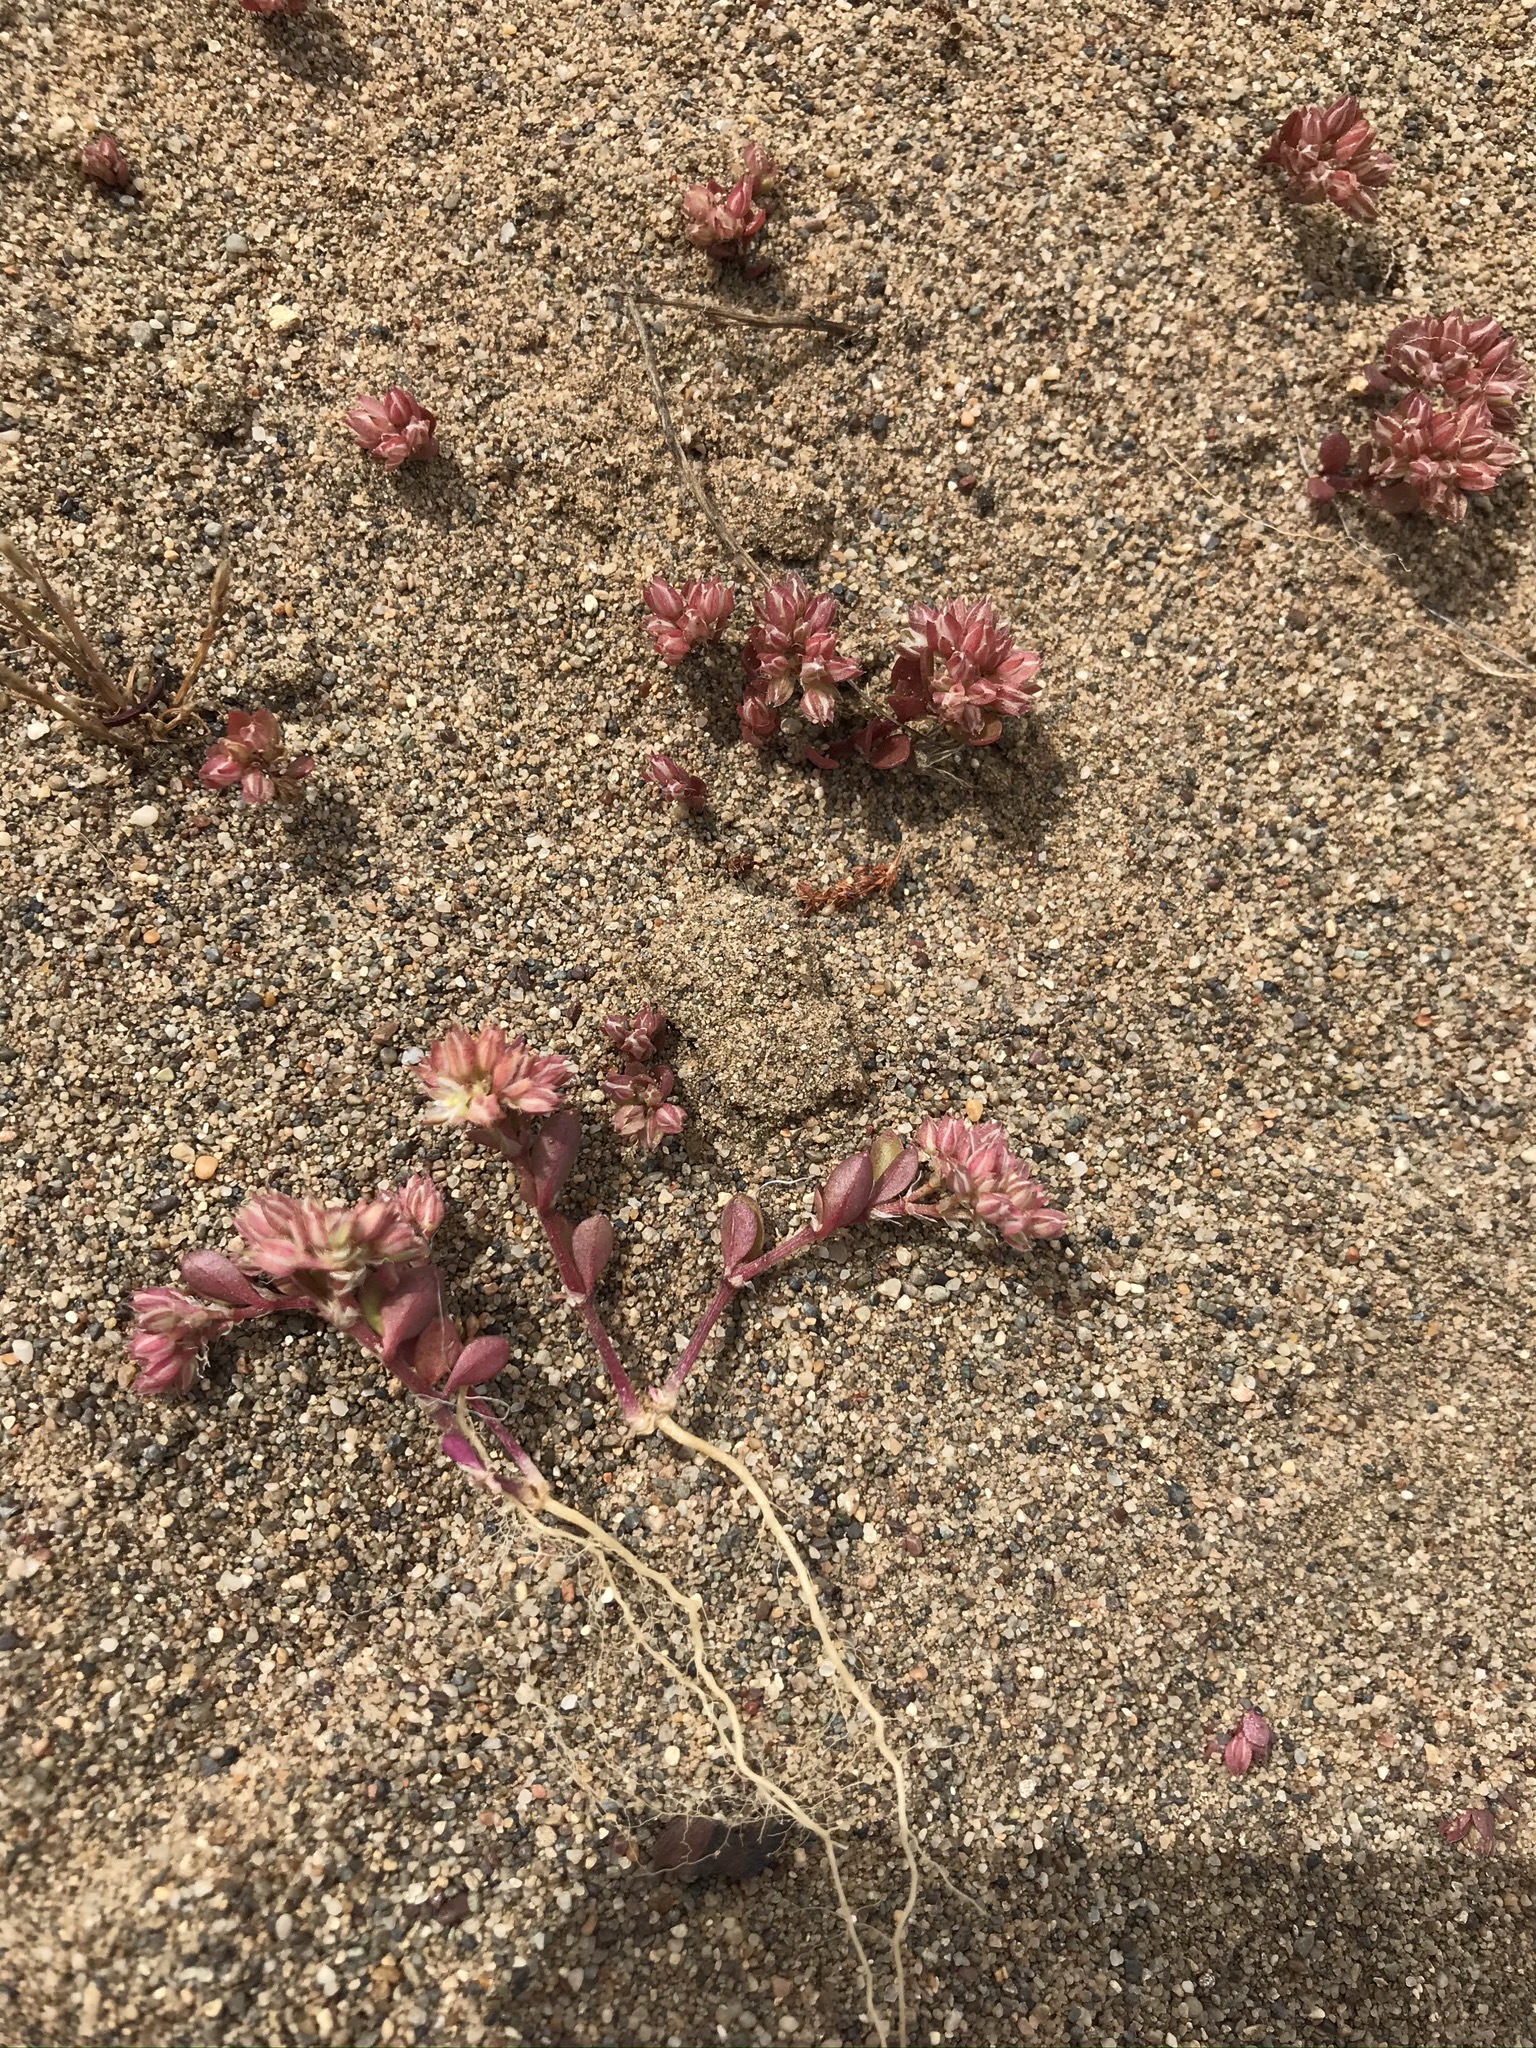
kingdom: Plantae
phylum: Tracheophyta
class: Magnoliopsida
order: Caryophyllales
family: Caryophyllaceae
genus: Polycarpon
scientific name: Polycarpon tetraphyllum
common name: Four-leaved all-seed
